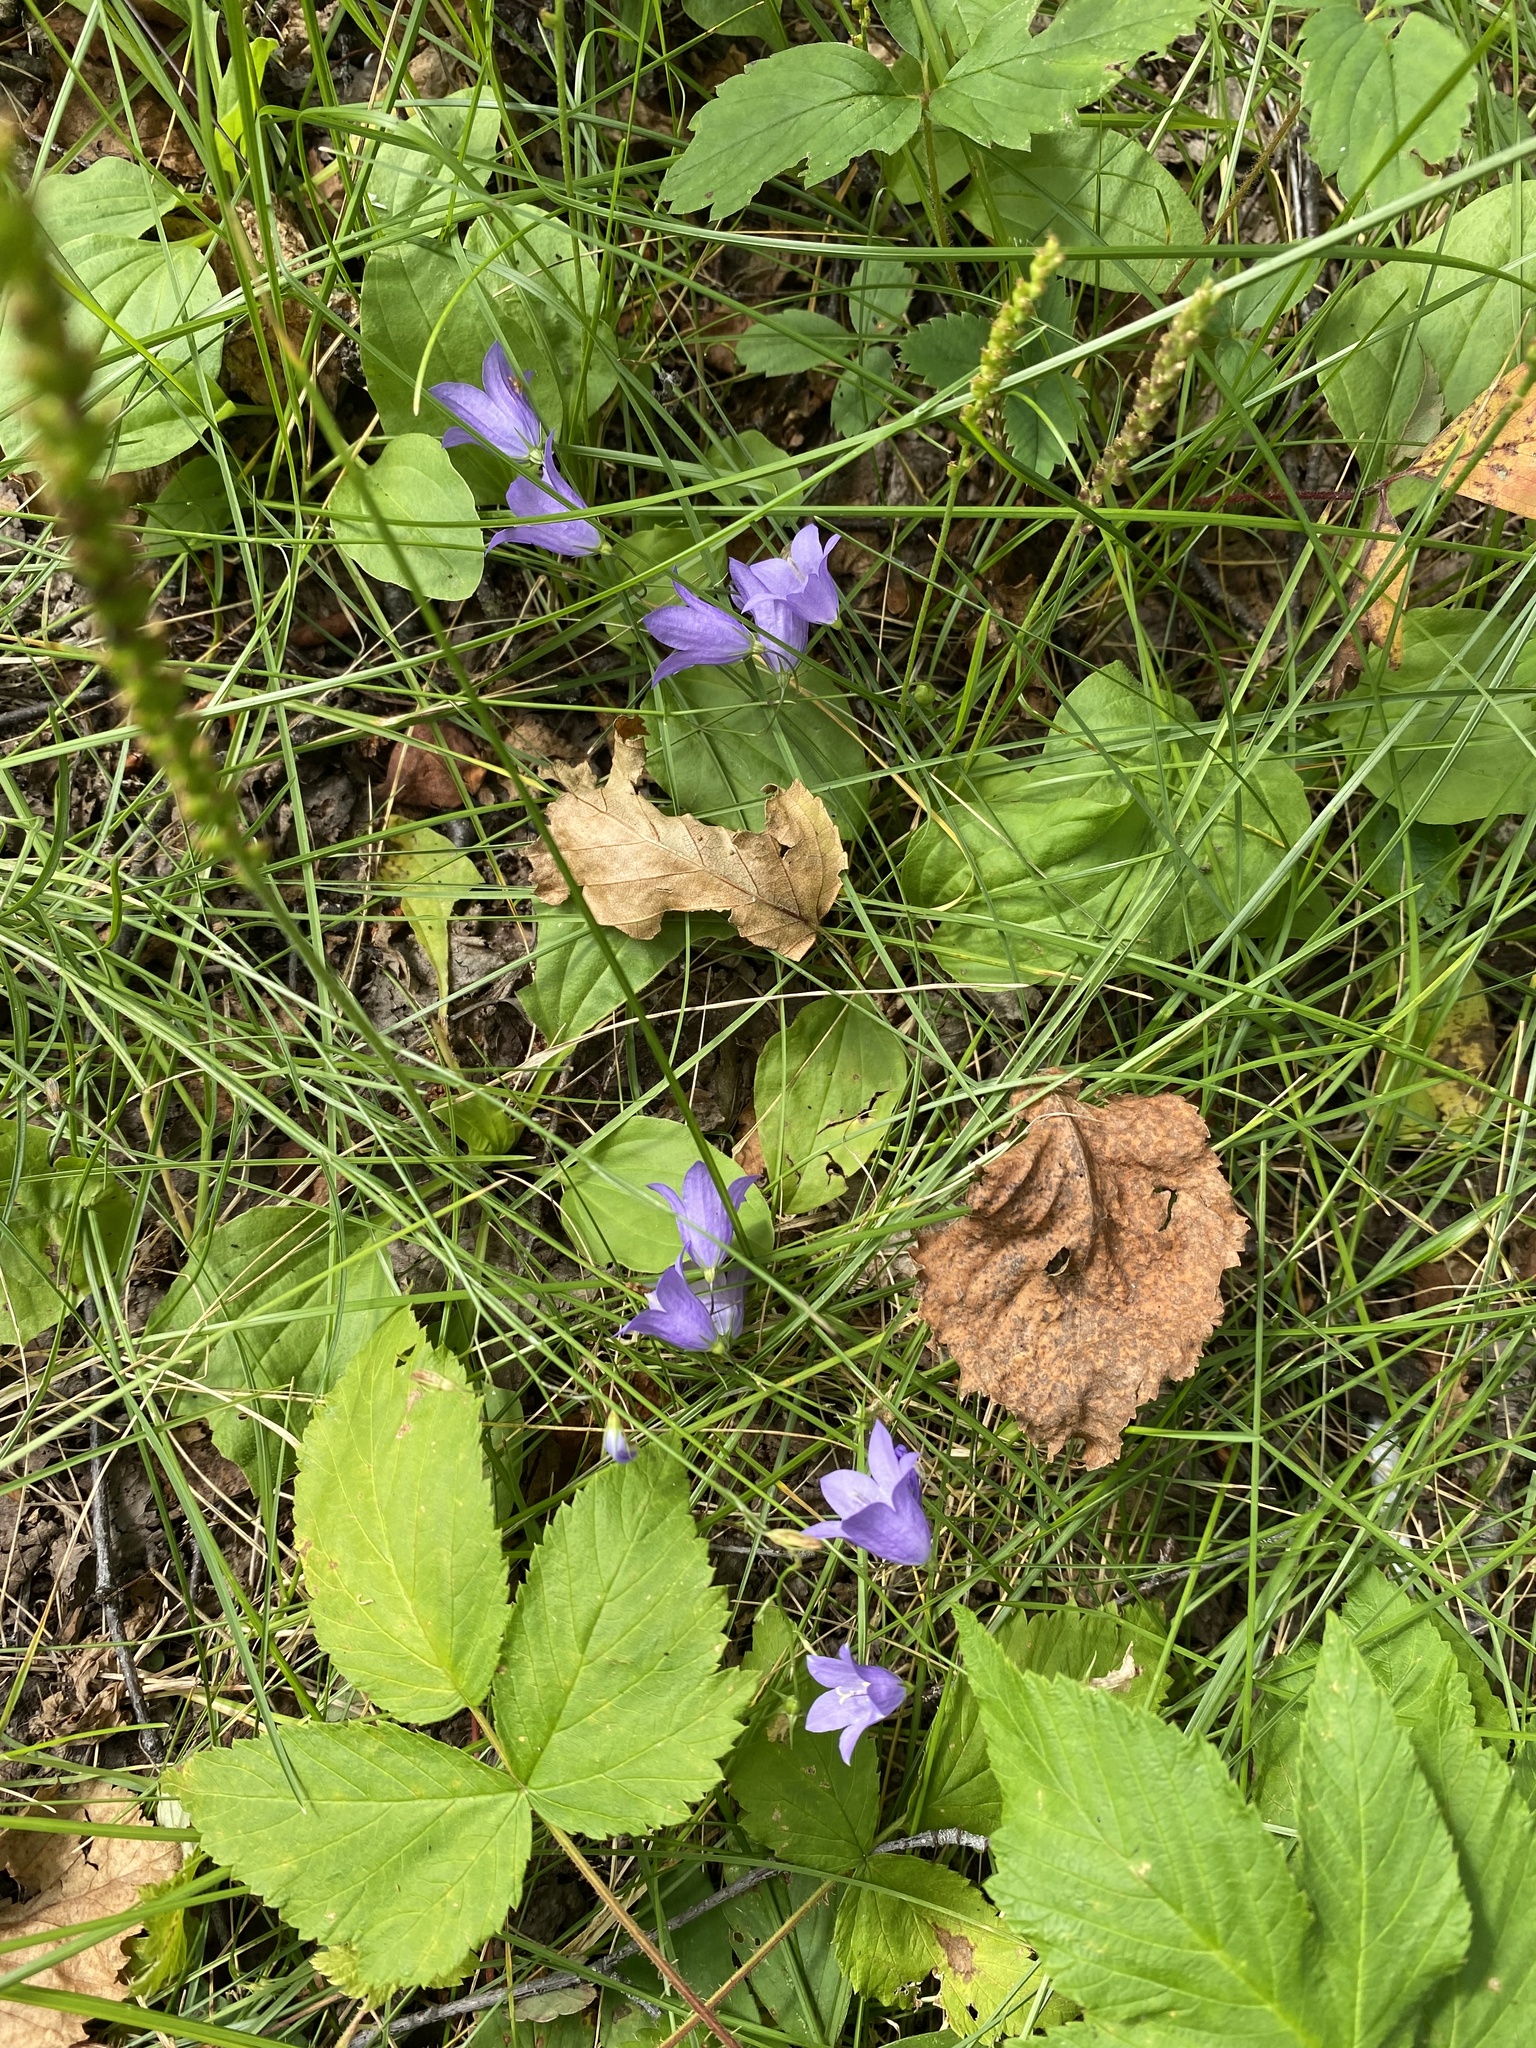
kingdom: Plantae
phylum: Tracheophyta
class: Magnoliopsida
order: Asterales
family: Campanulaceae
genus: Campanula
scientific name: Campanula petiolata
